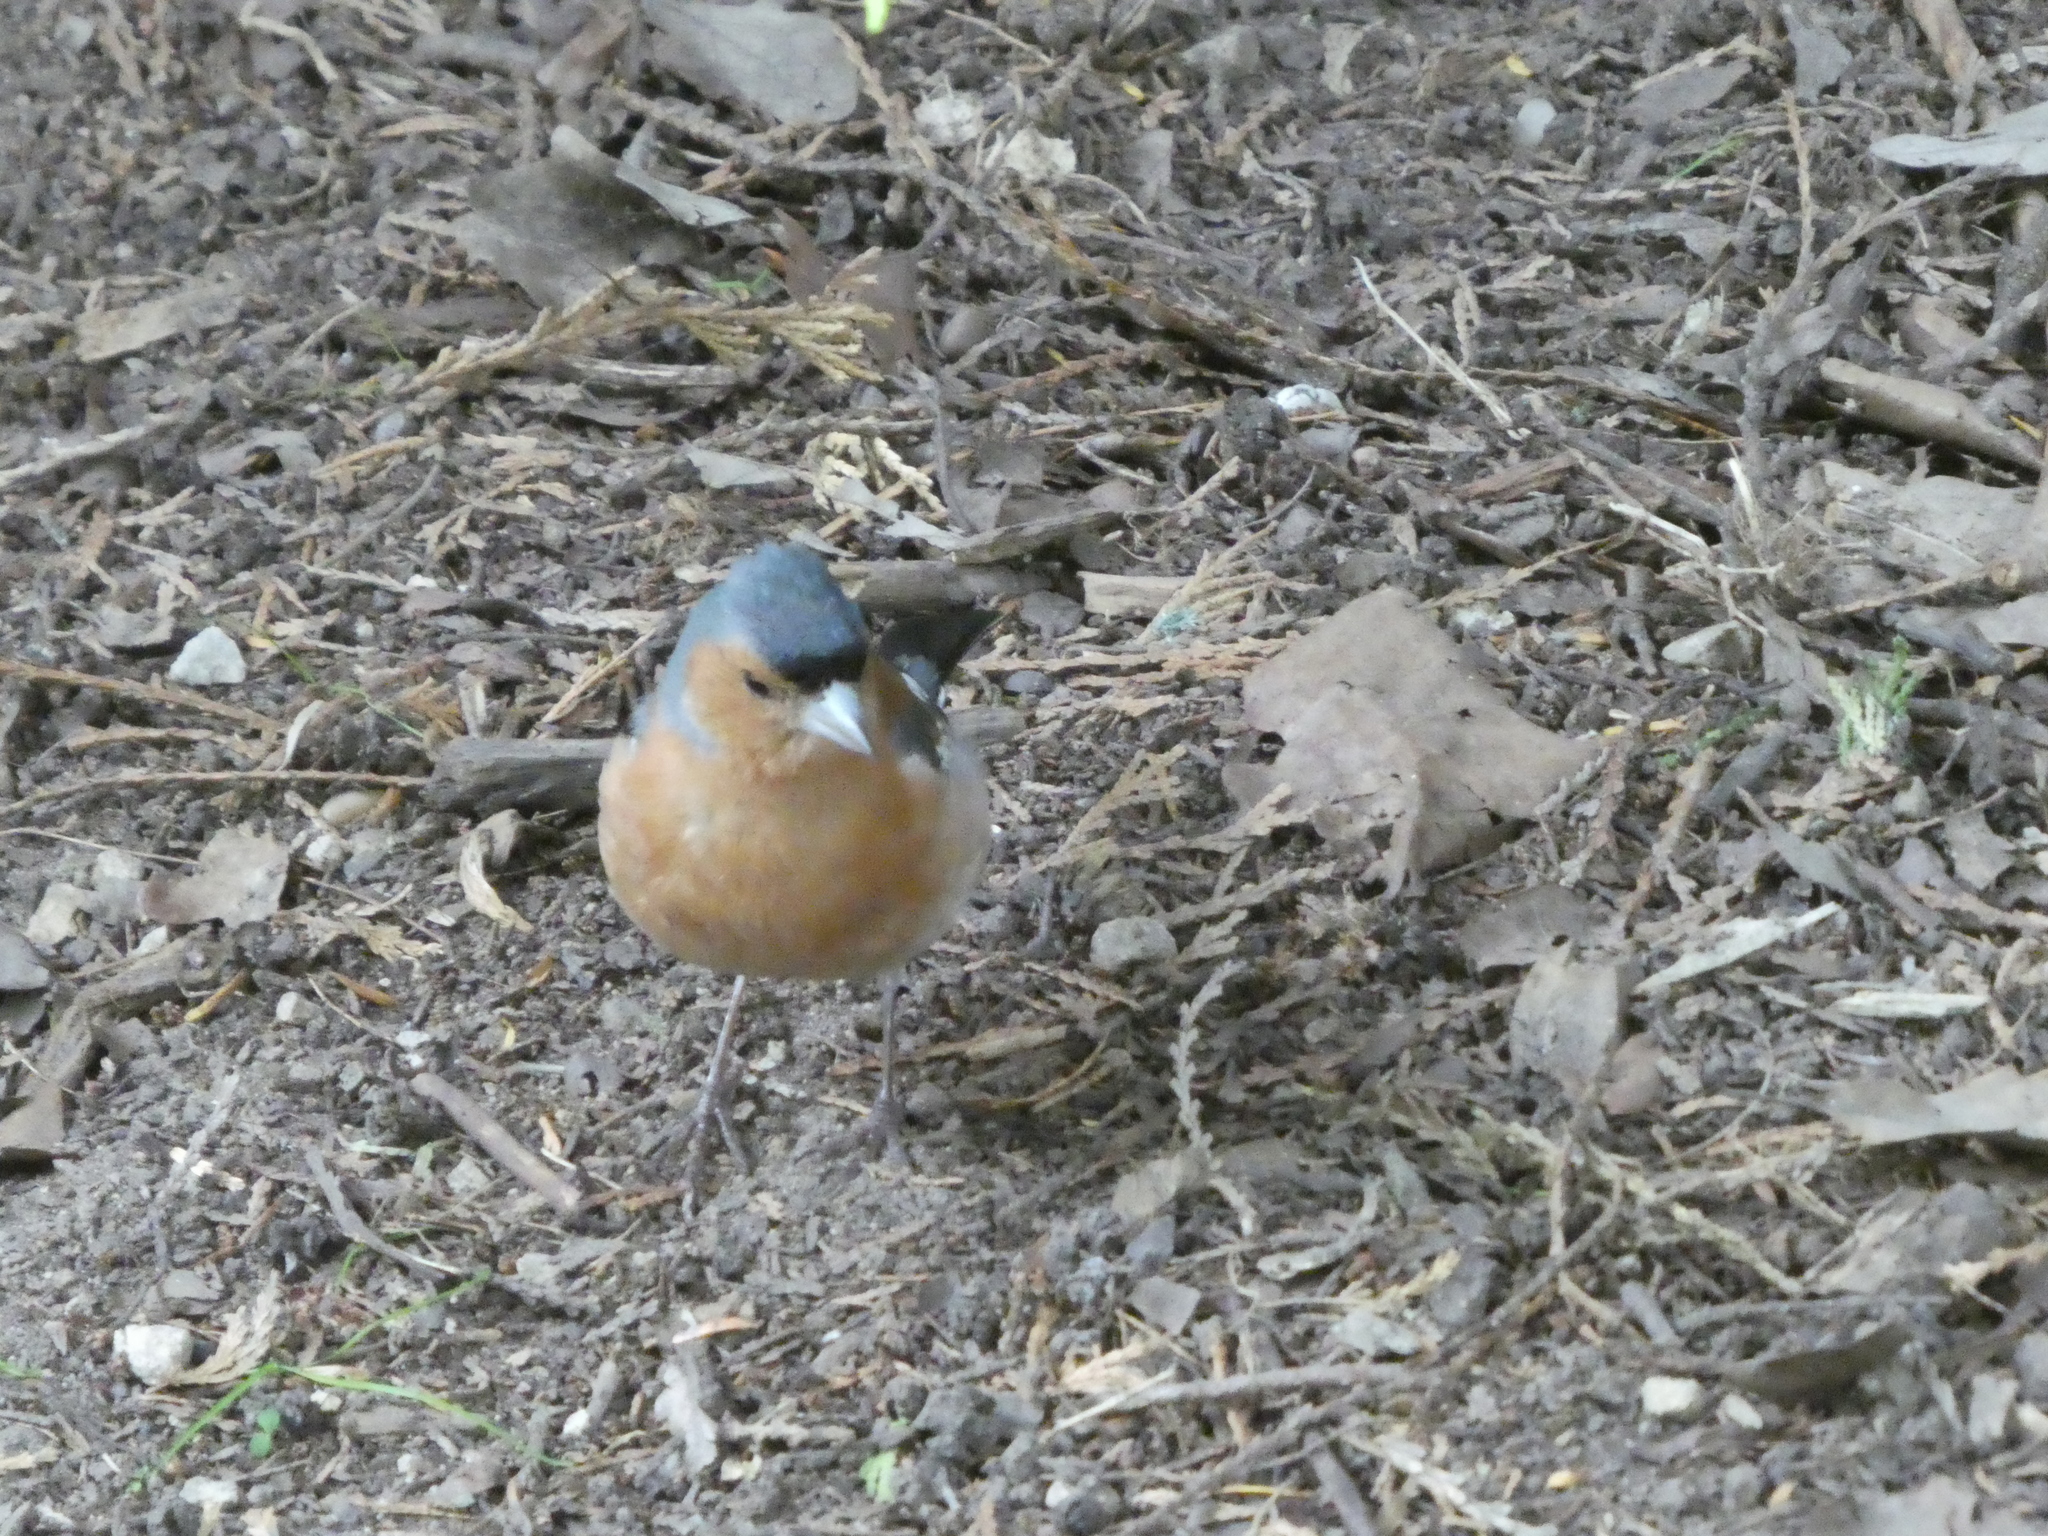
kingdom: Animalia
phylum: Chordata
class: Aves
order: Passeriformes
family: Fringillidae
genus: Fringilla
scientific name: Fringilla coelebs
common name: Common chaffinch
